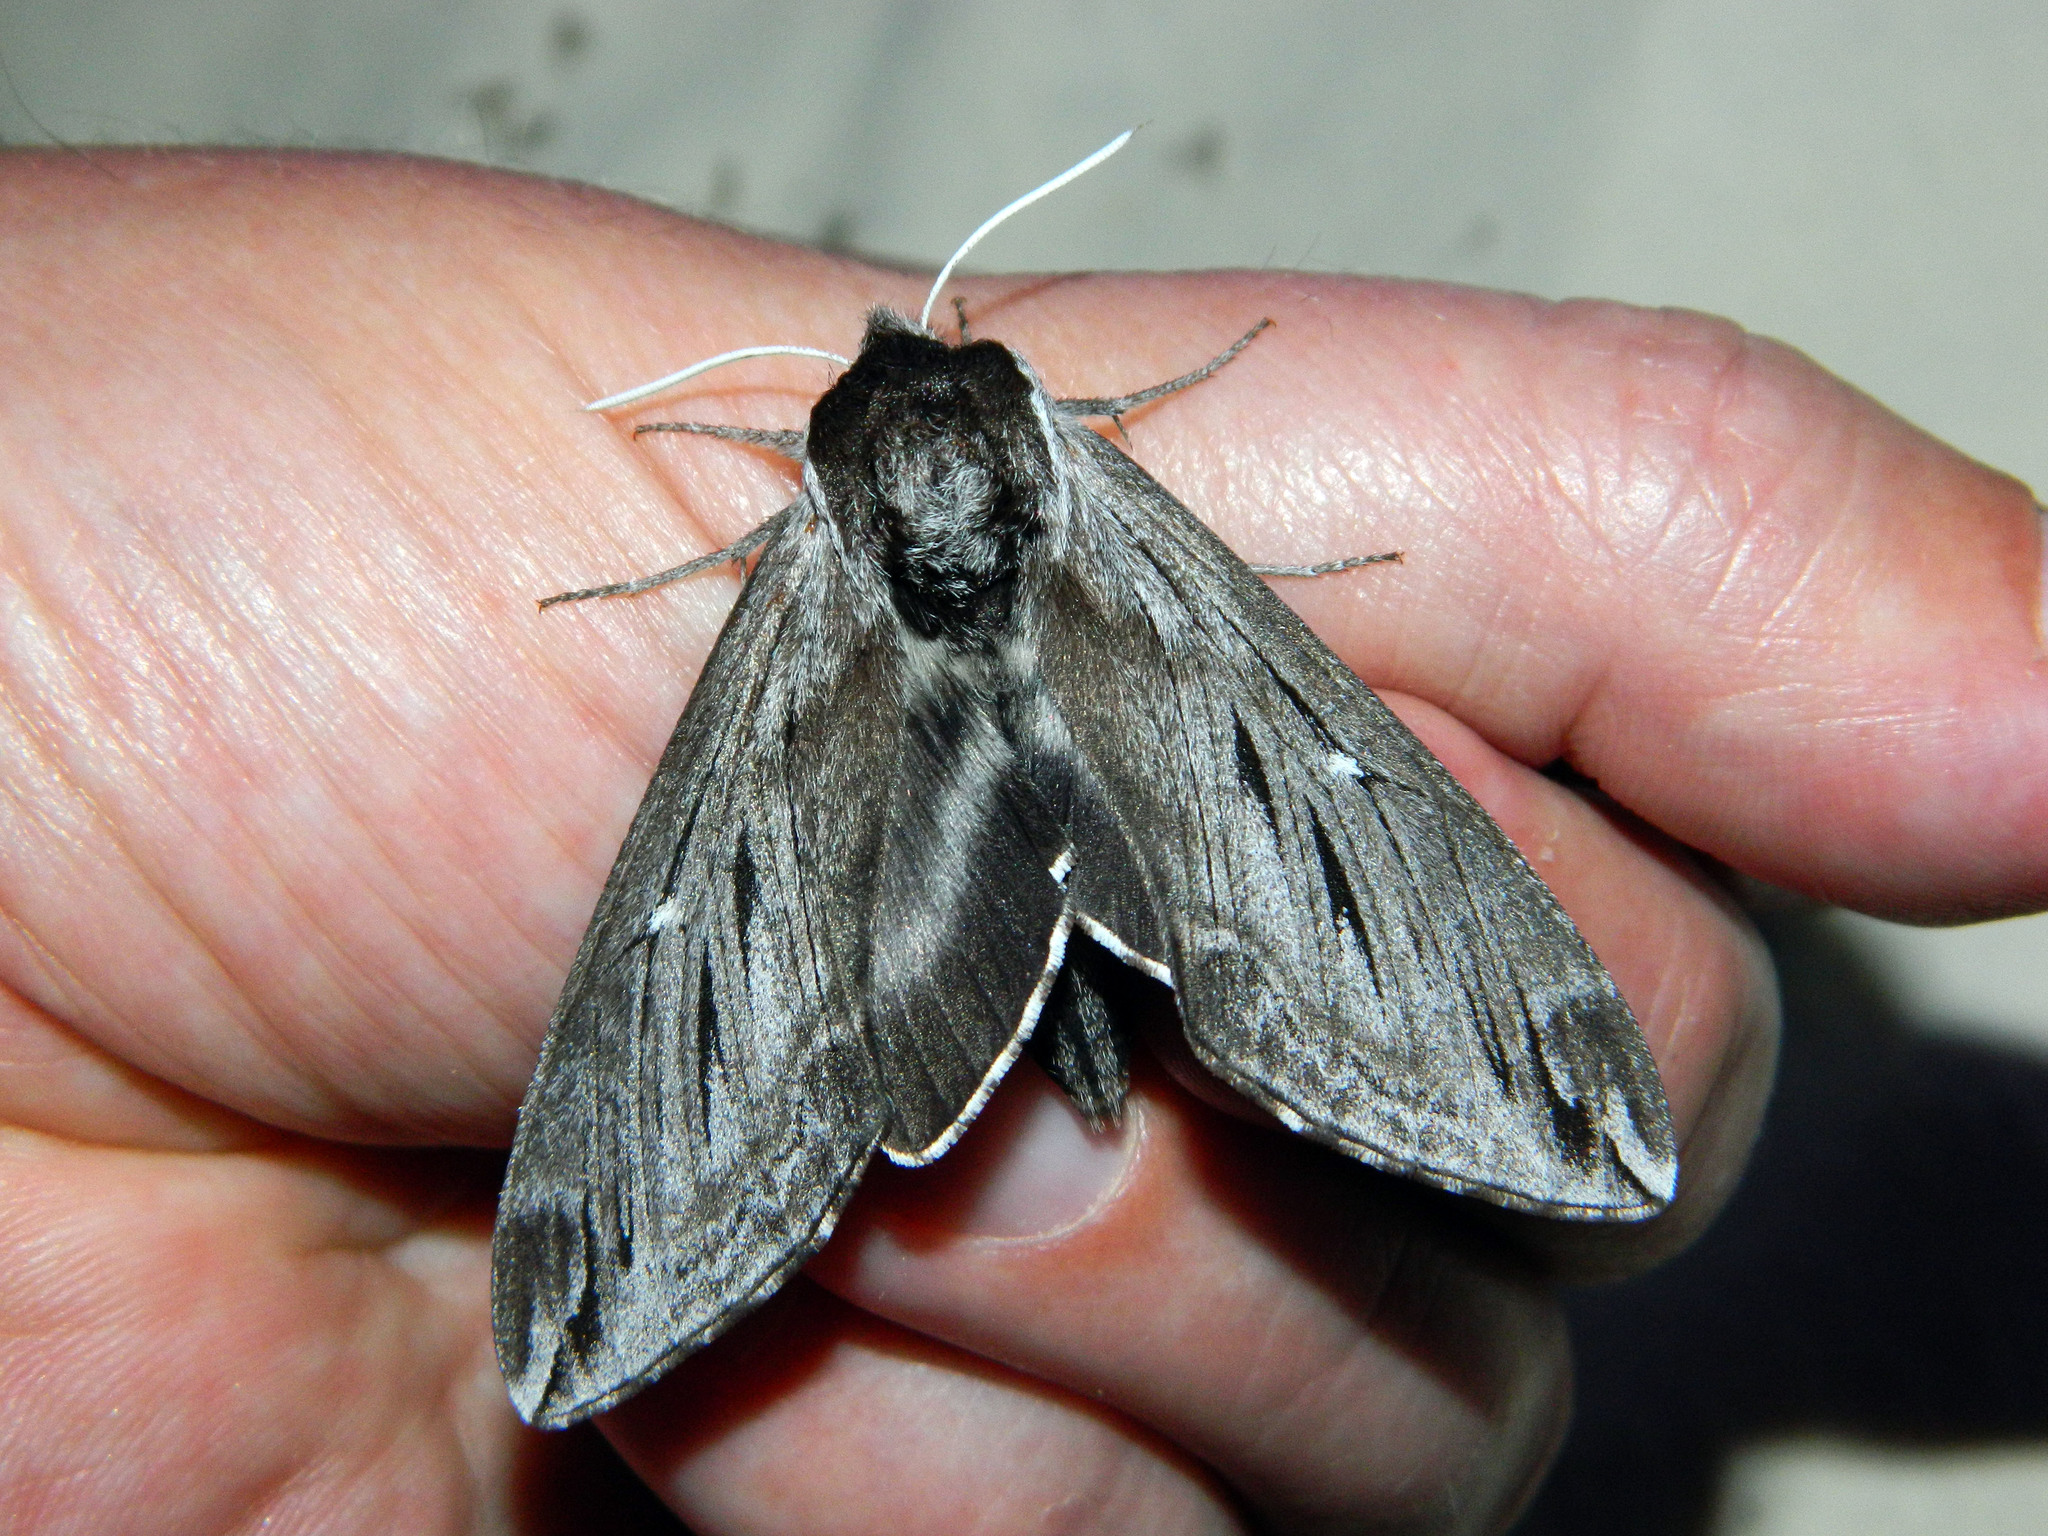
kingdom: Animalia
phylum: Arthropoda
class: Insecta
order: Lepidoptera
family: Sphingidae
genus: Sphinx
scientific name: Sphinx poecila
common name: Northern apple sphinx
